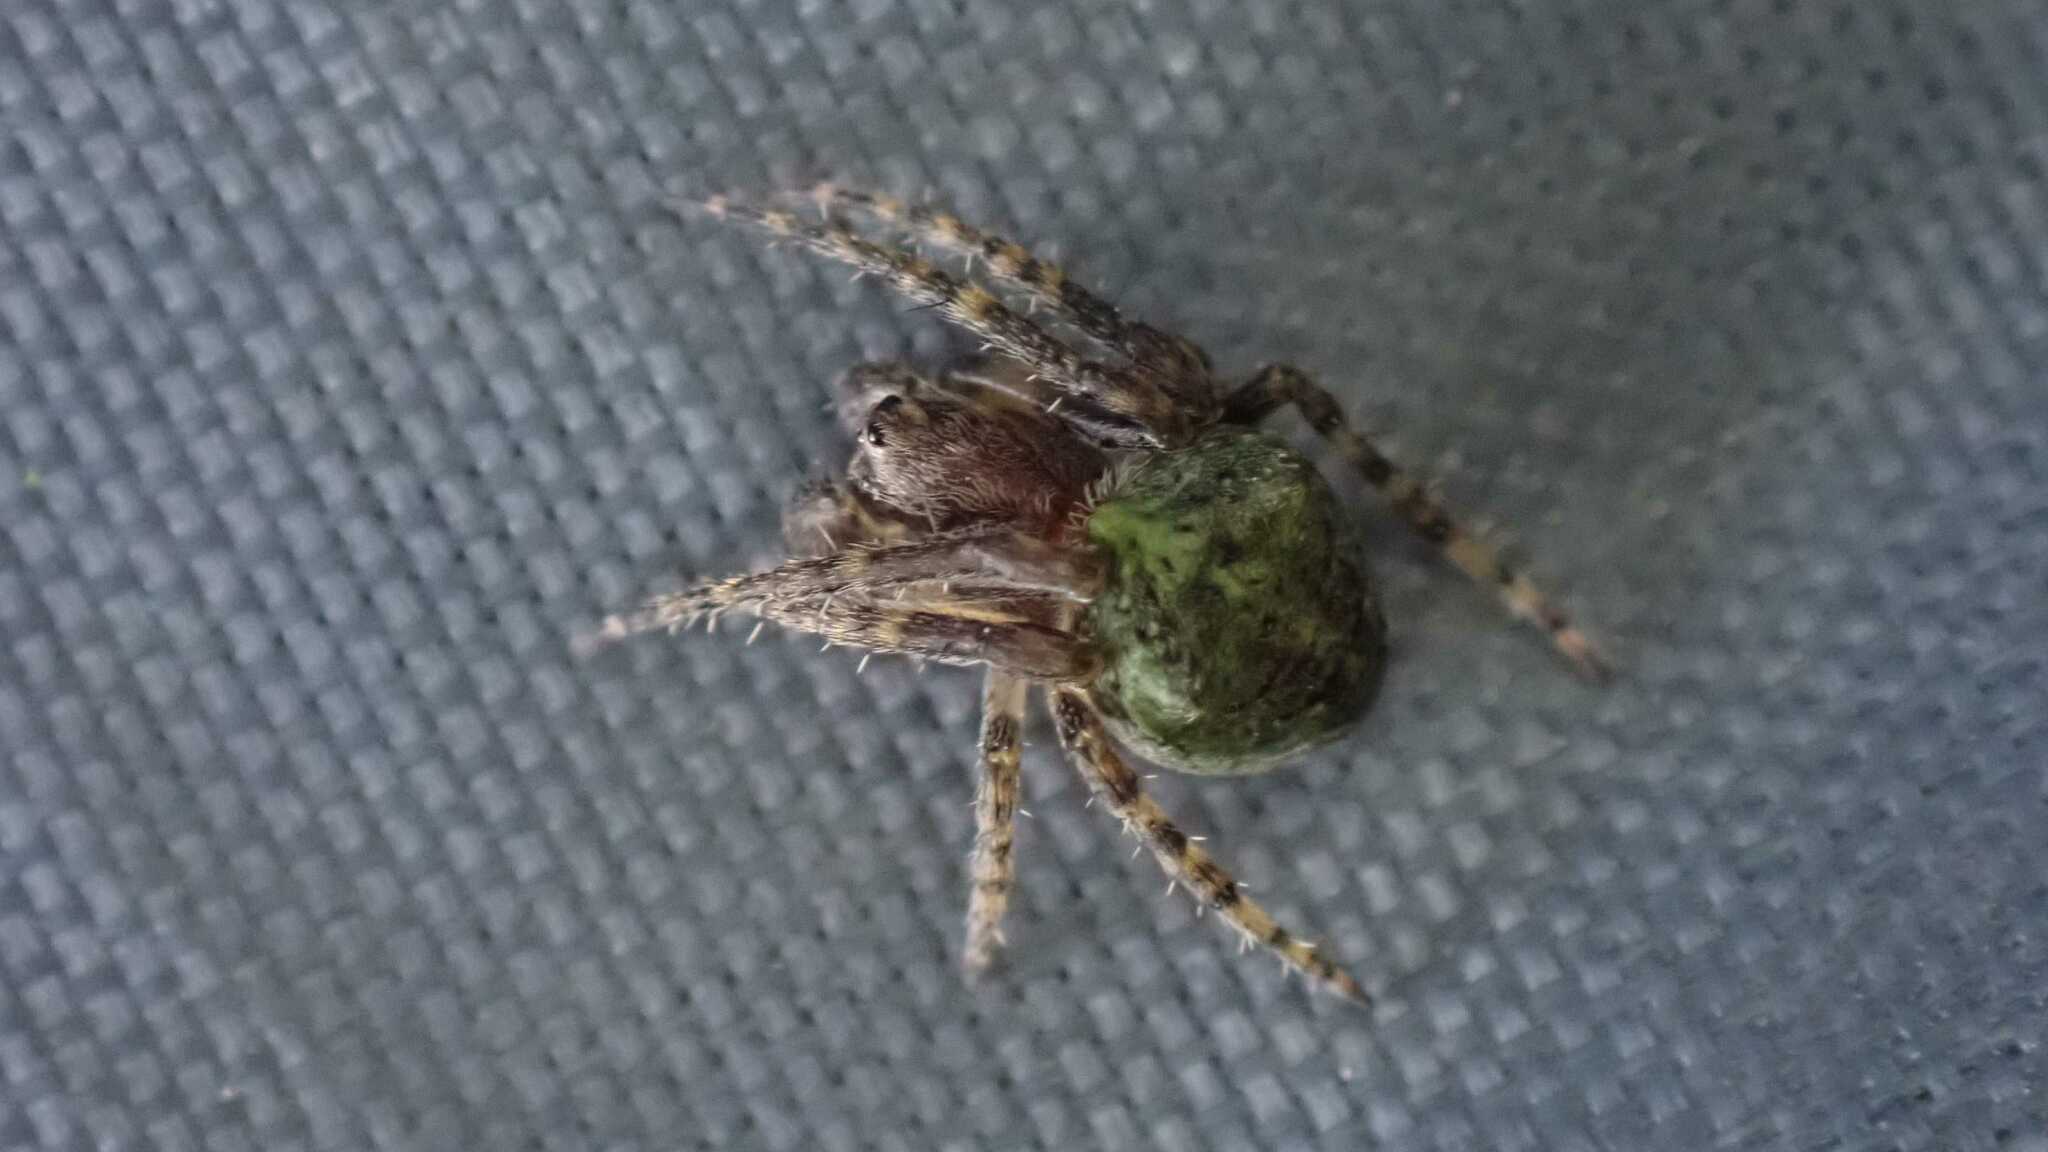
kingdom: Animalia
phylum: Arthropoda
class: Arachnida
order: Araneae
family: Araneidae
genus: Gibbaranea
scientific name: Gibbaranea gibbosa
